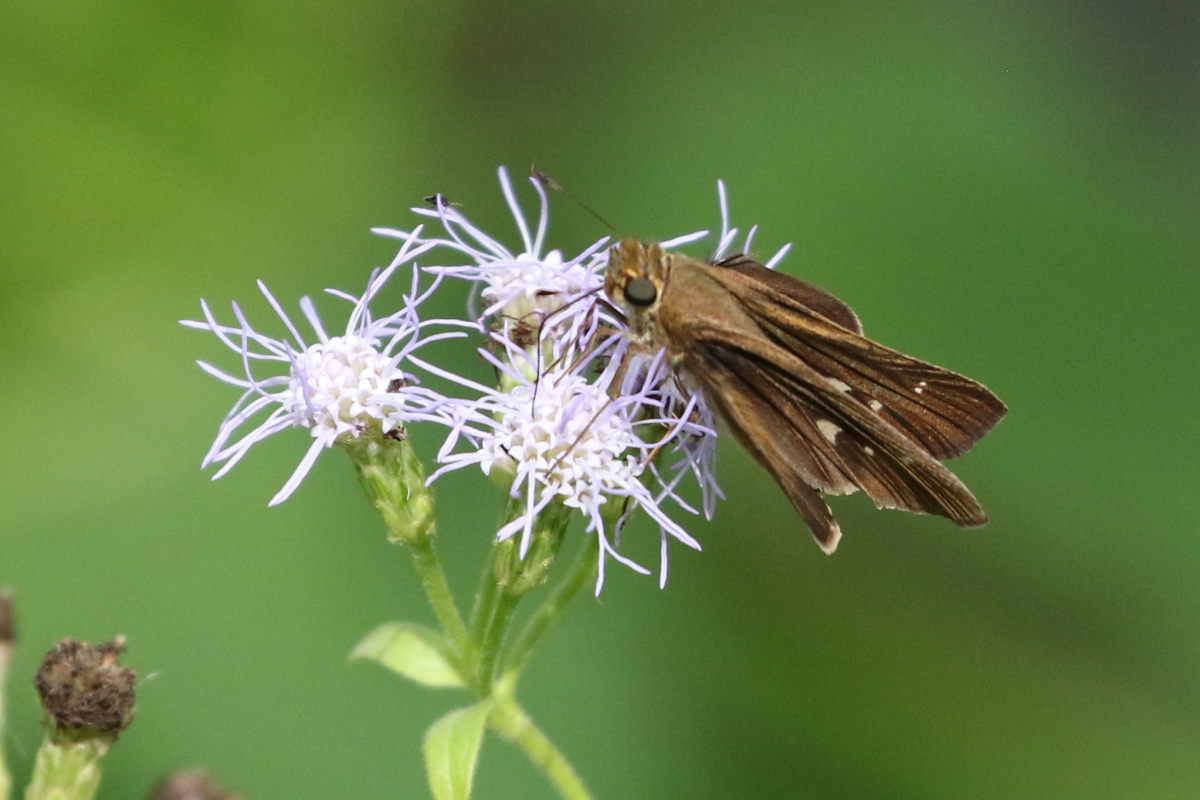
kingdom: Animalia
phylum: Arthropoda
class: Insecta
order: Lepidoptera
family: Hesperiidae
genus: Panoquina
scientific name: Panoquina ocola
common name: Ocola skipper
